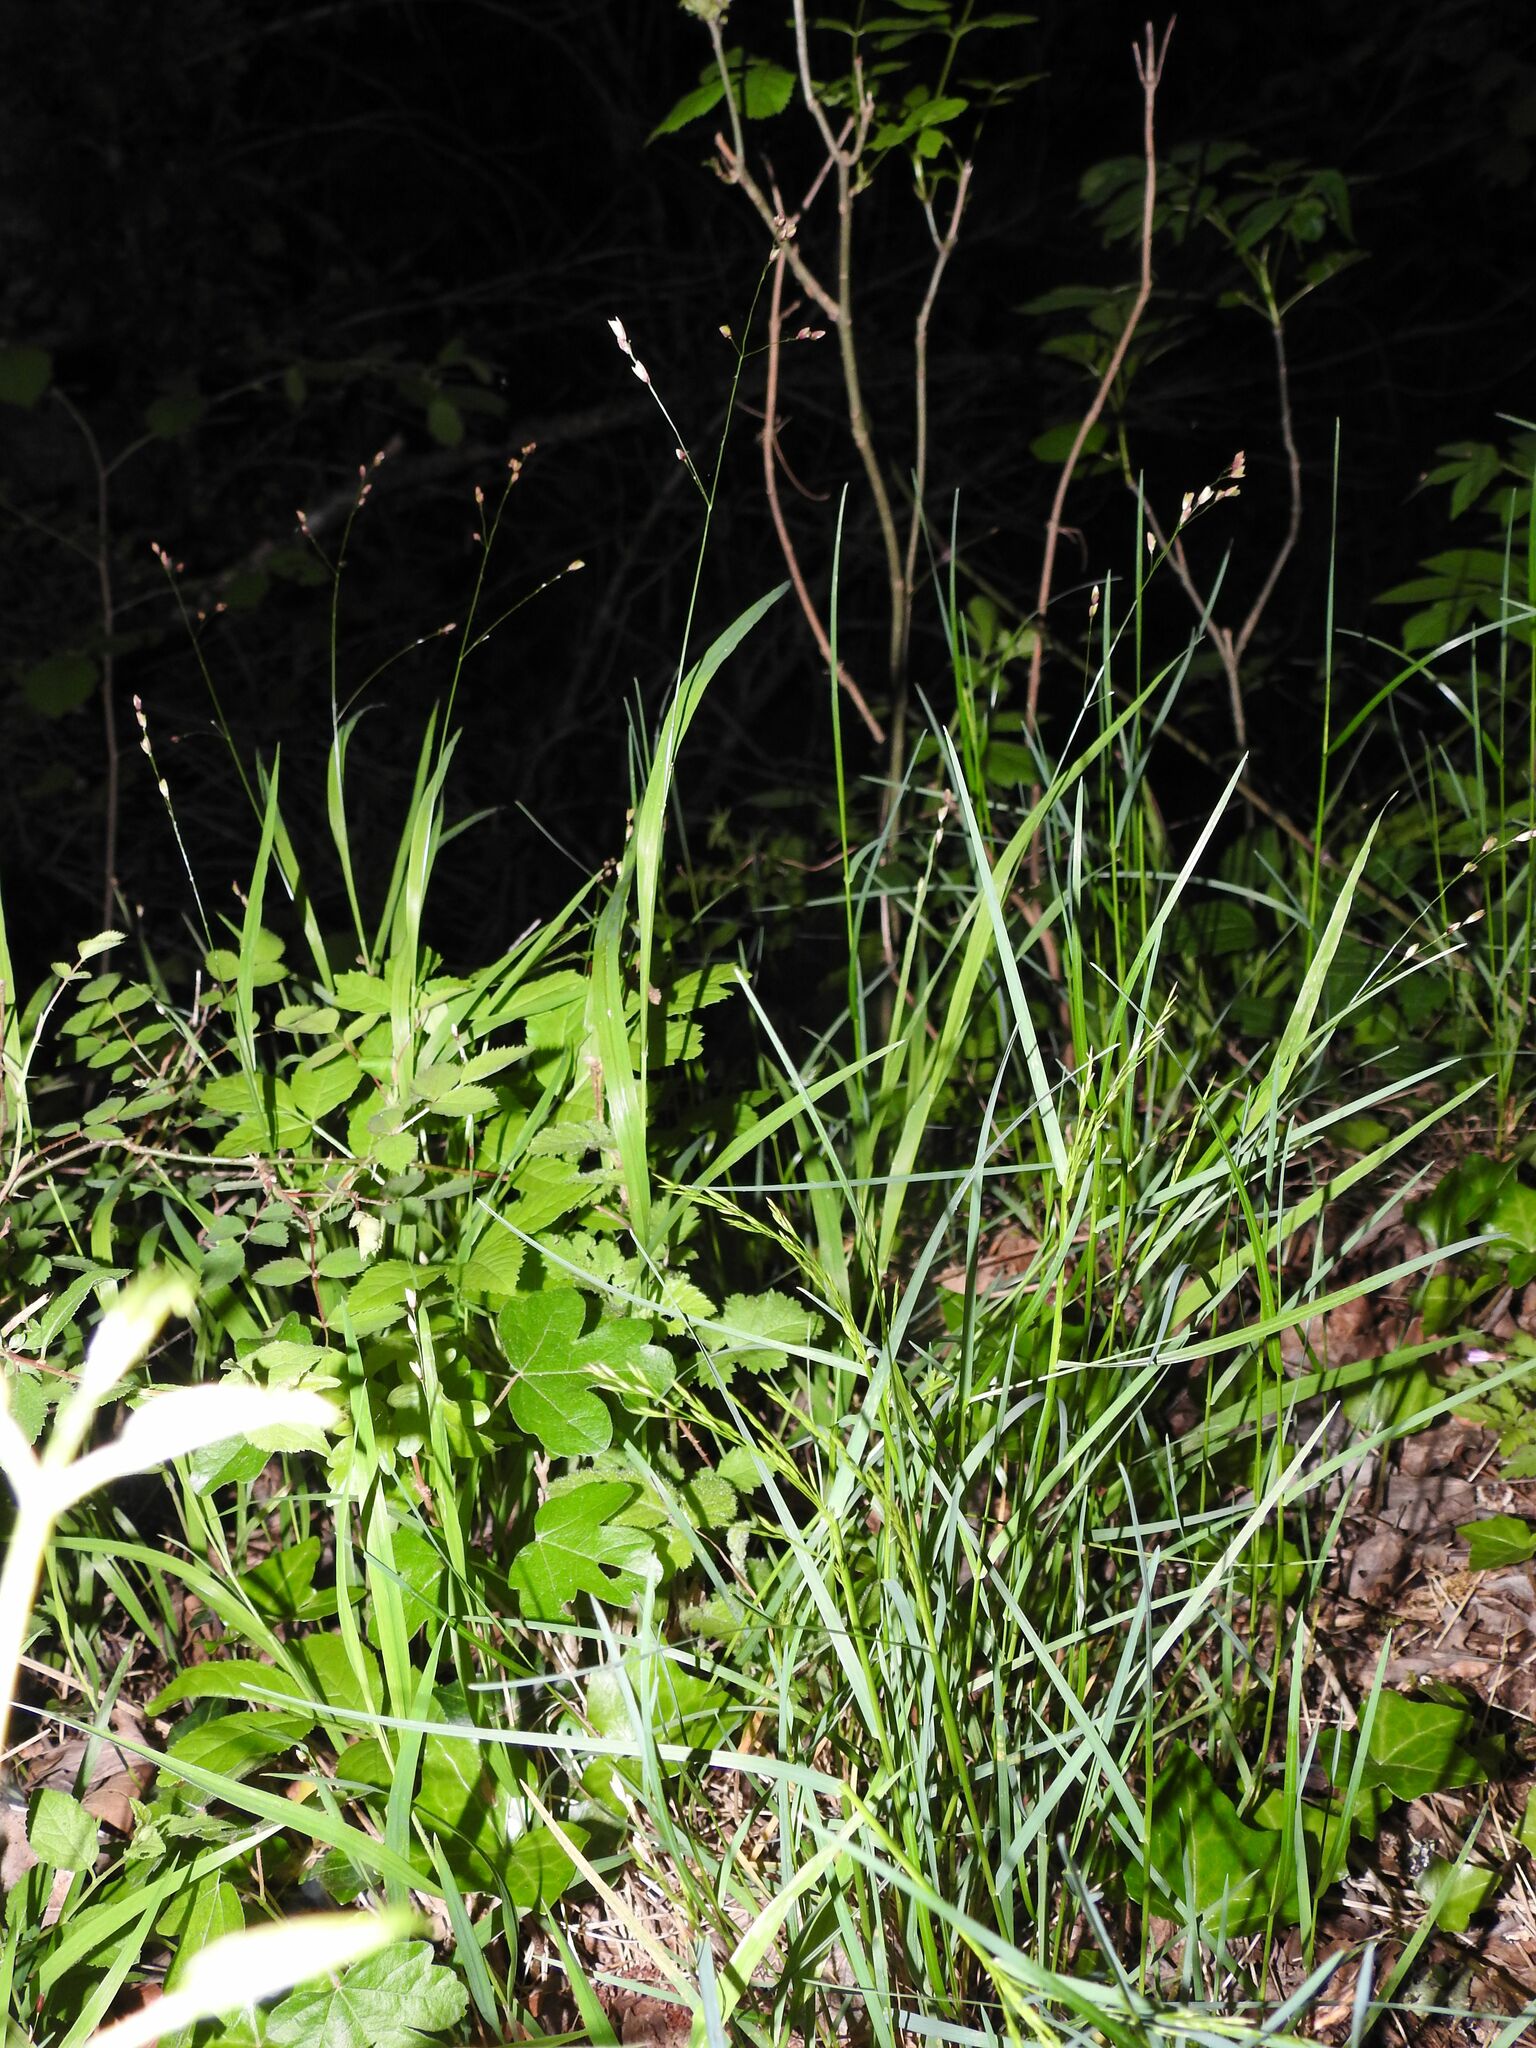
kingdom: Plantae
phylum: Tracheophyta
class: Liliopsida
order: Poales
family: Poaceae
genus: Melica
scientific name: Melica uniflora
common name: Wood melick
